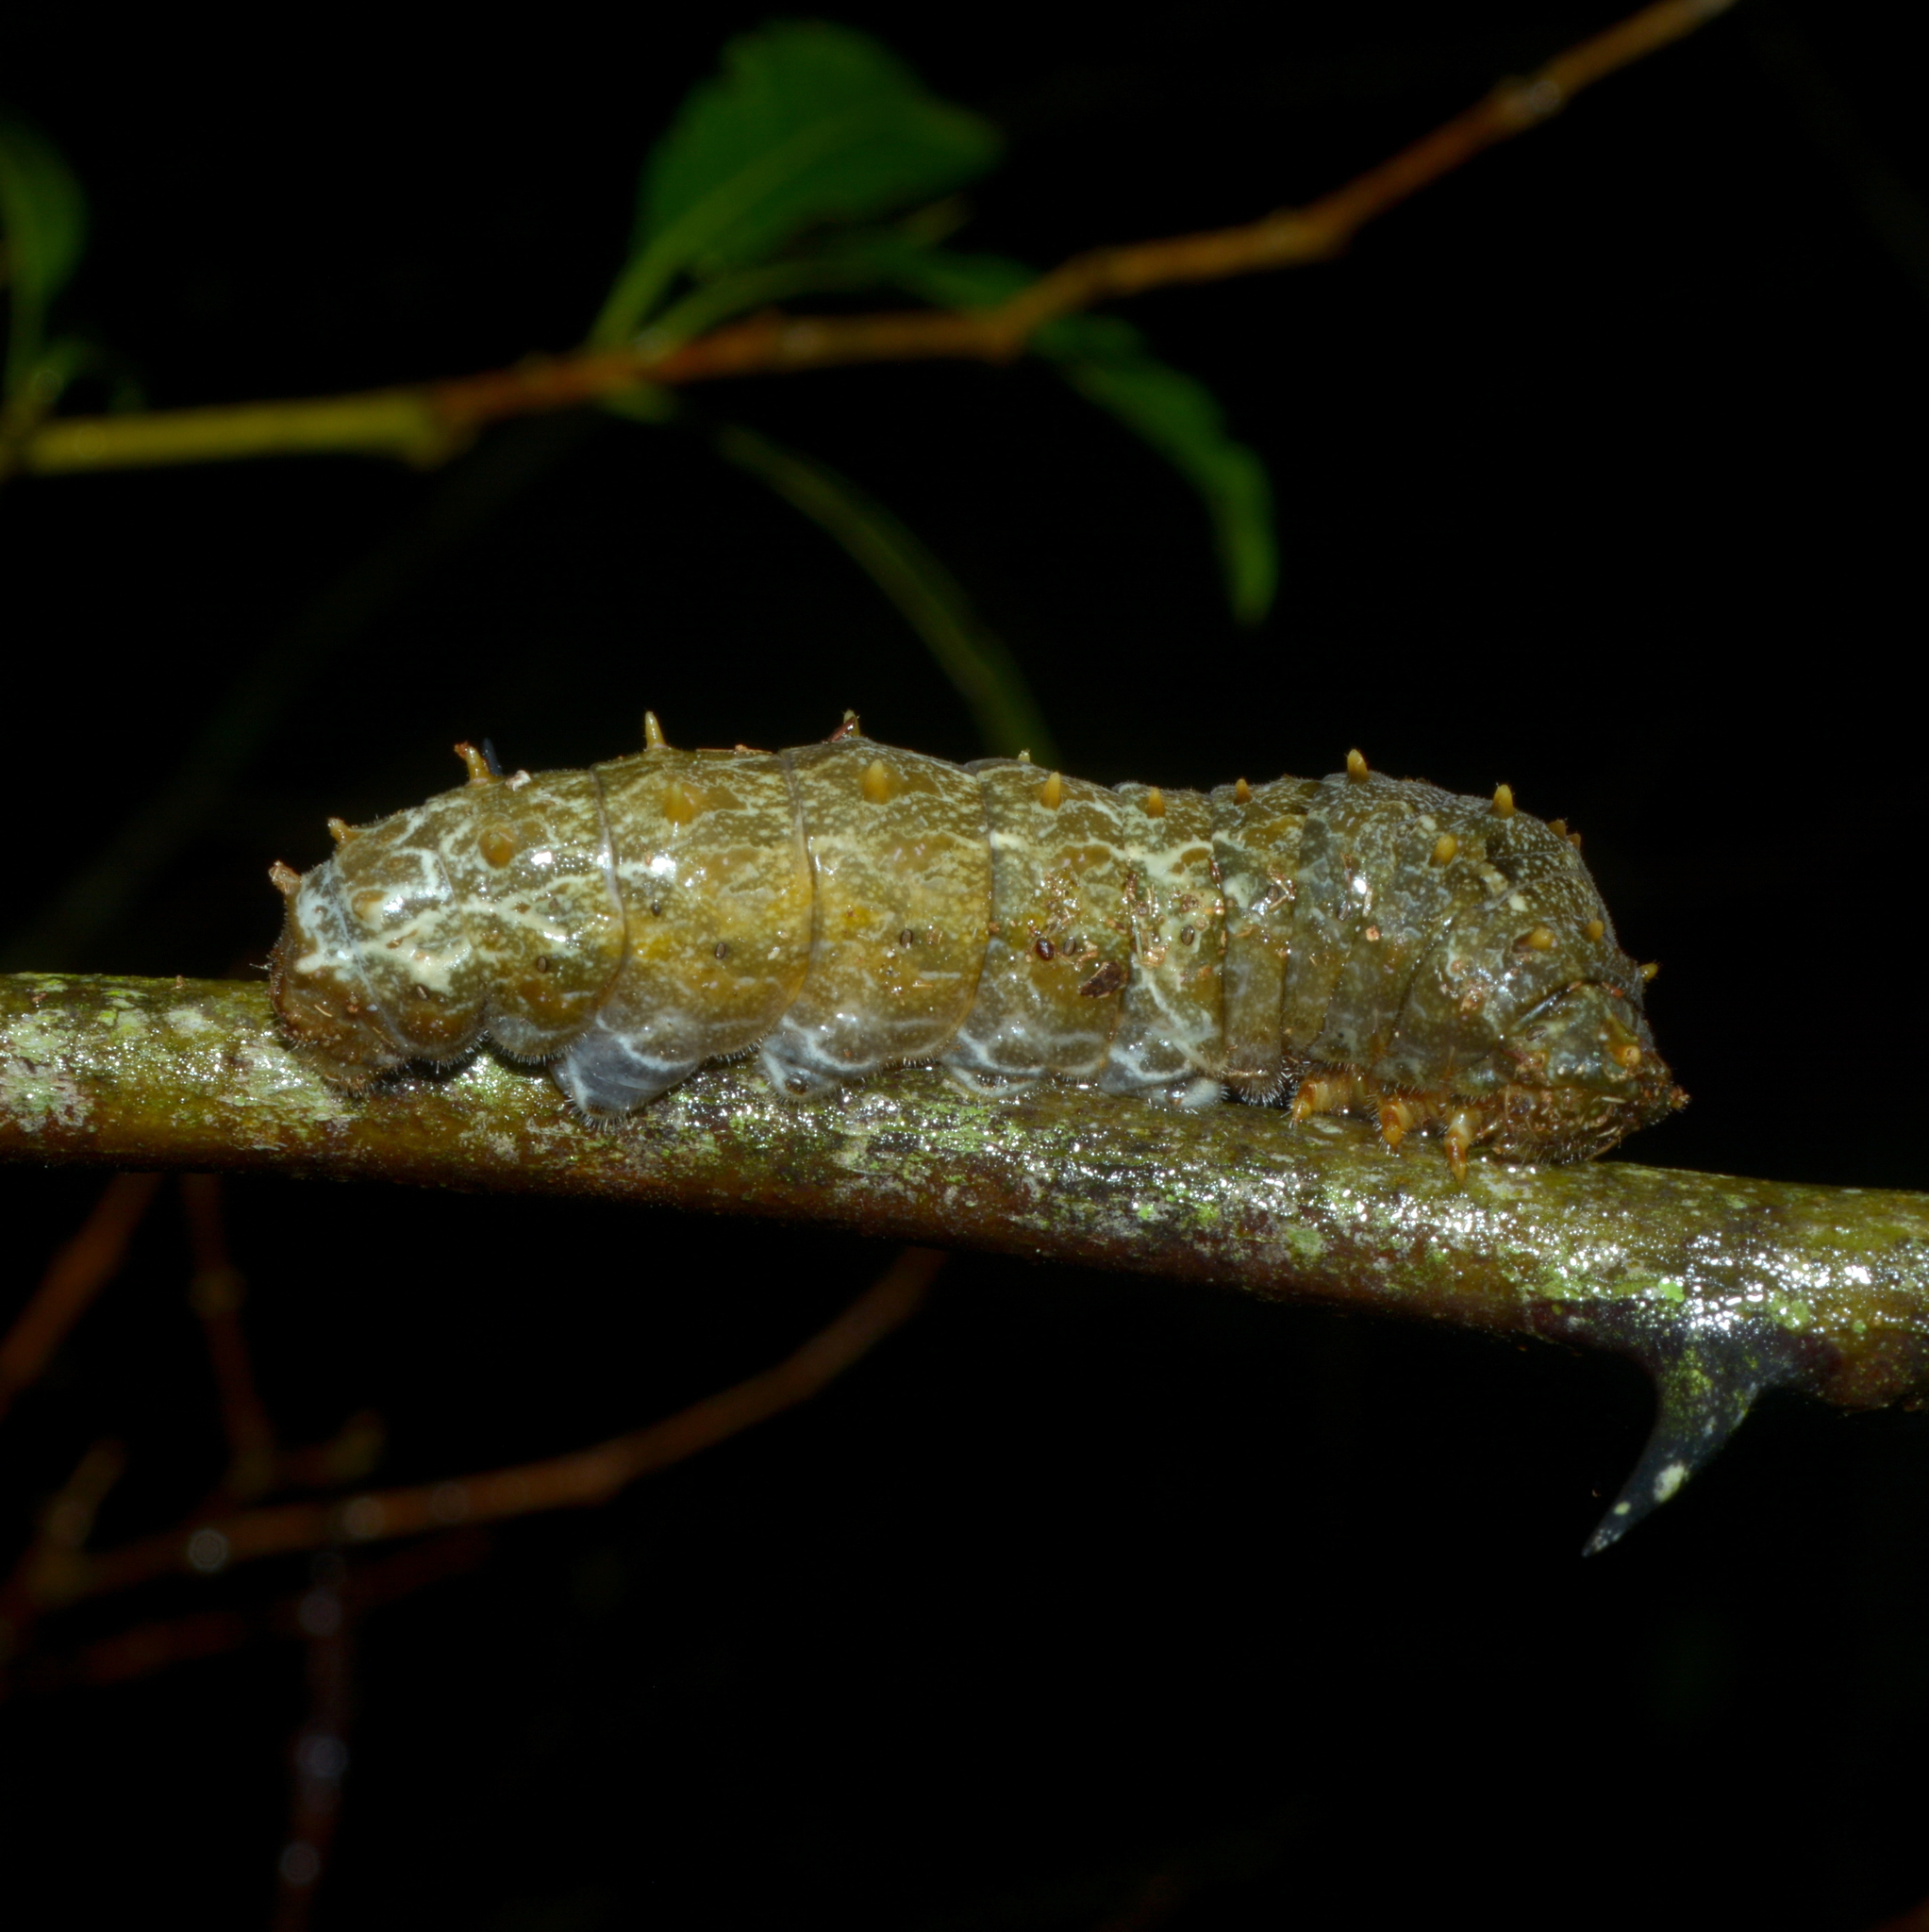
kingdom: Animalia
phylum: Arthropoda
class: Insecta
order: Lepidoptera
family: Papilionidae
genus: Papilio
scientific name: Papilio anchisiades
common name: Idaes swallowtail
